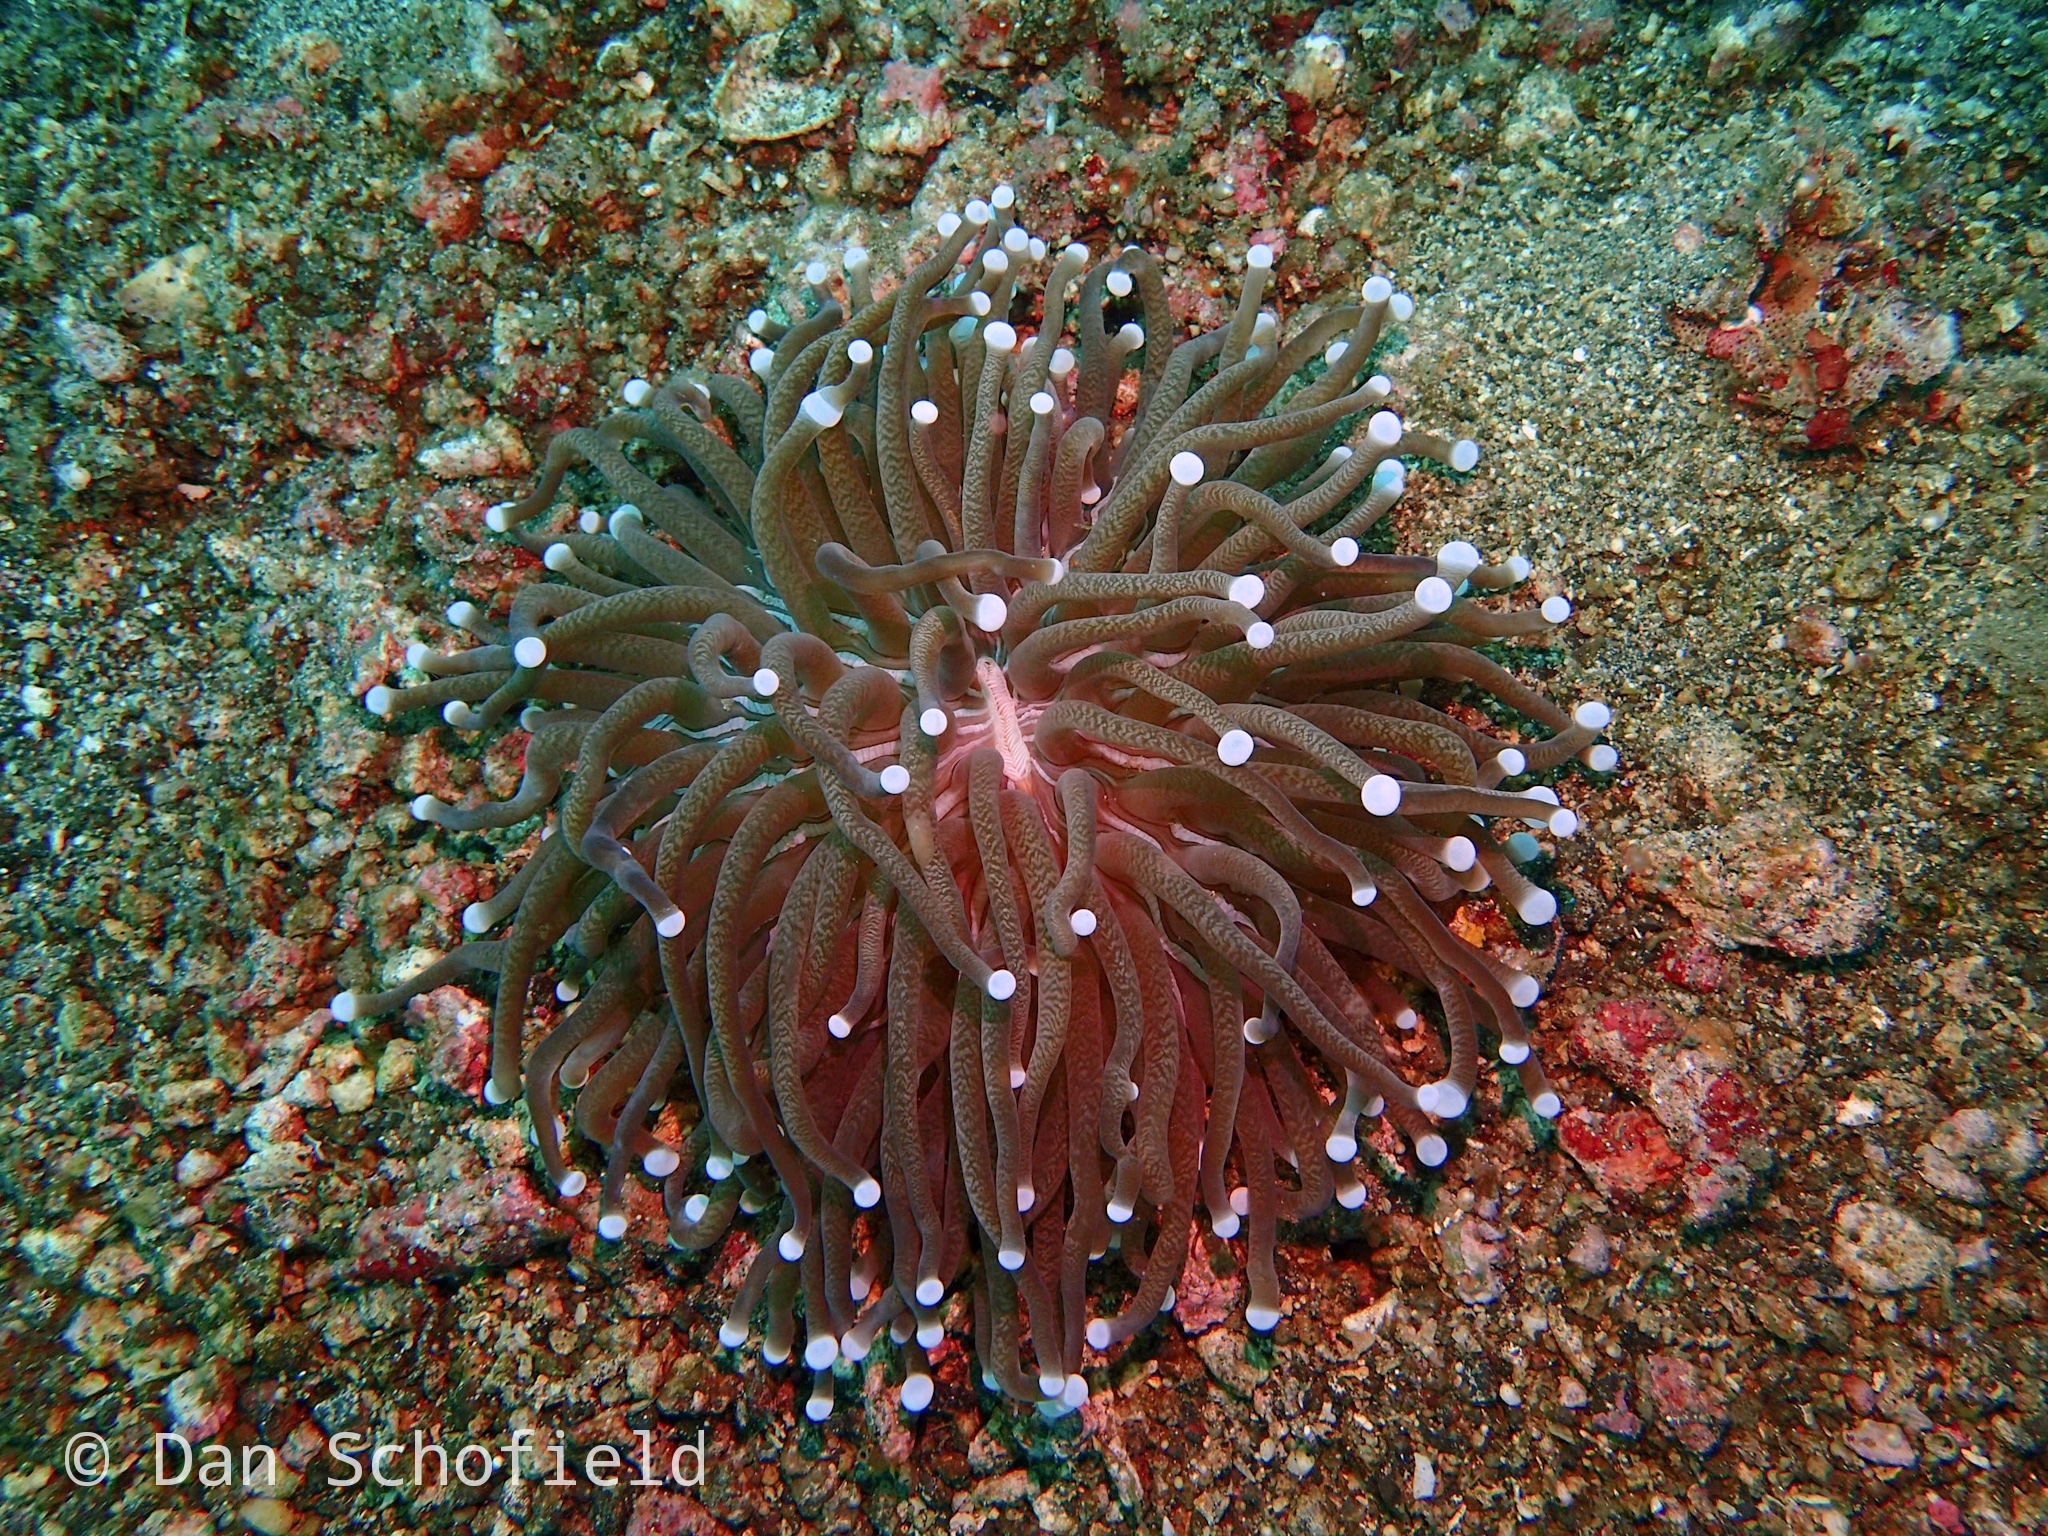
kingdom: Animalia
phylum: Cnidaria
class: Anthozoa
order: Scleractinia
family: Fungiidae
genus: Heliofungia
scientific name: Heliofungia actiniformis
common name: Plate coral
